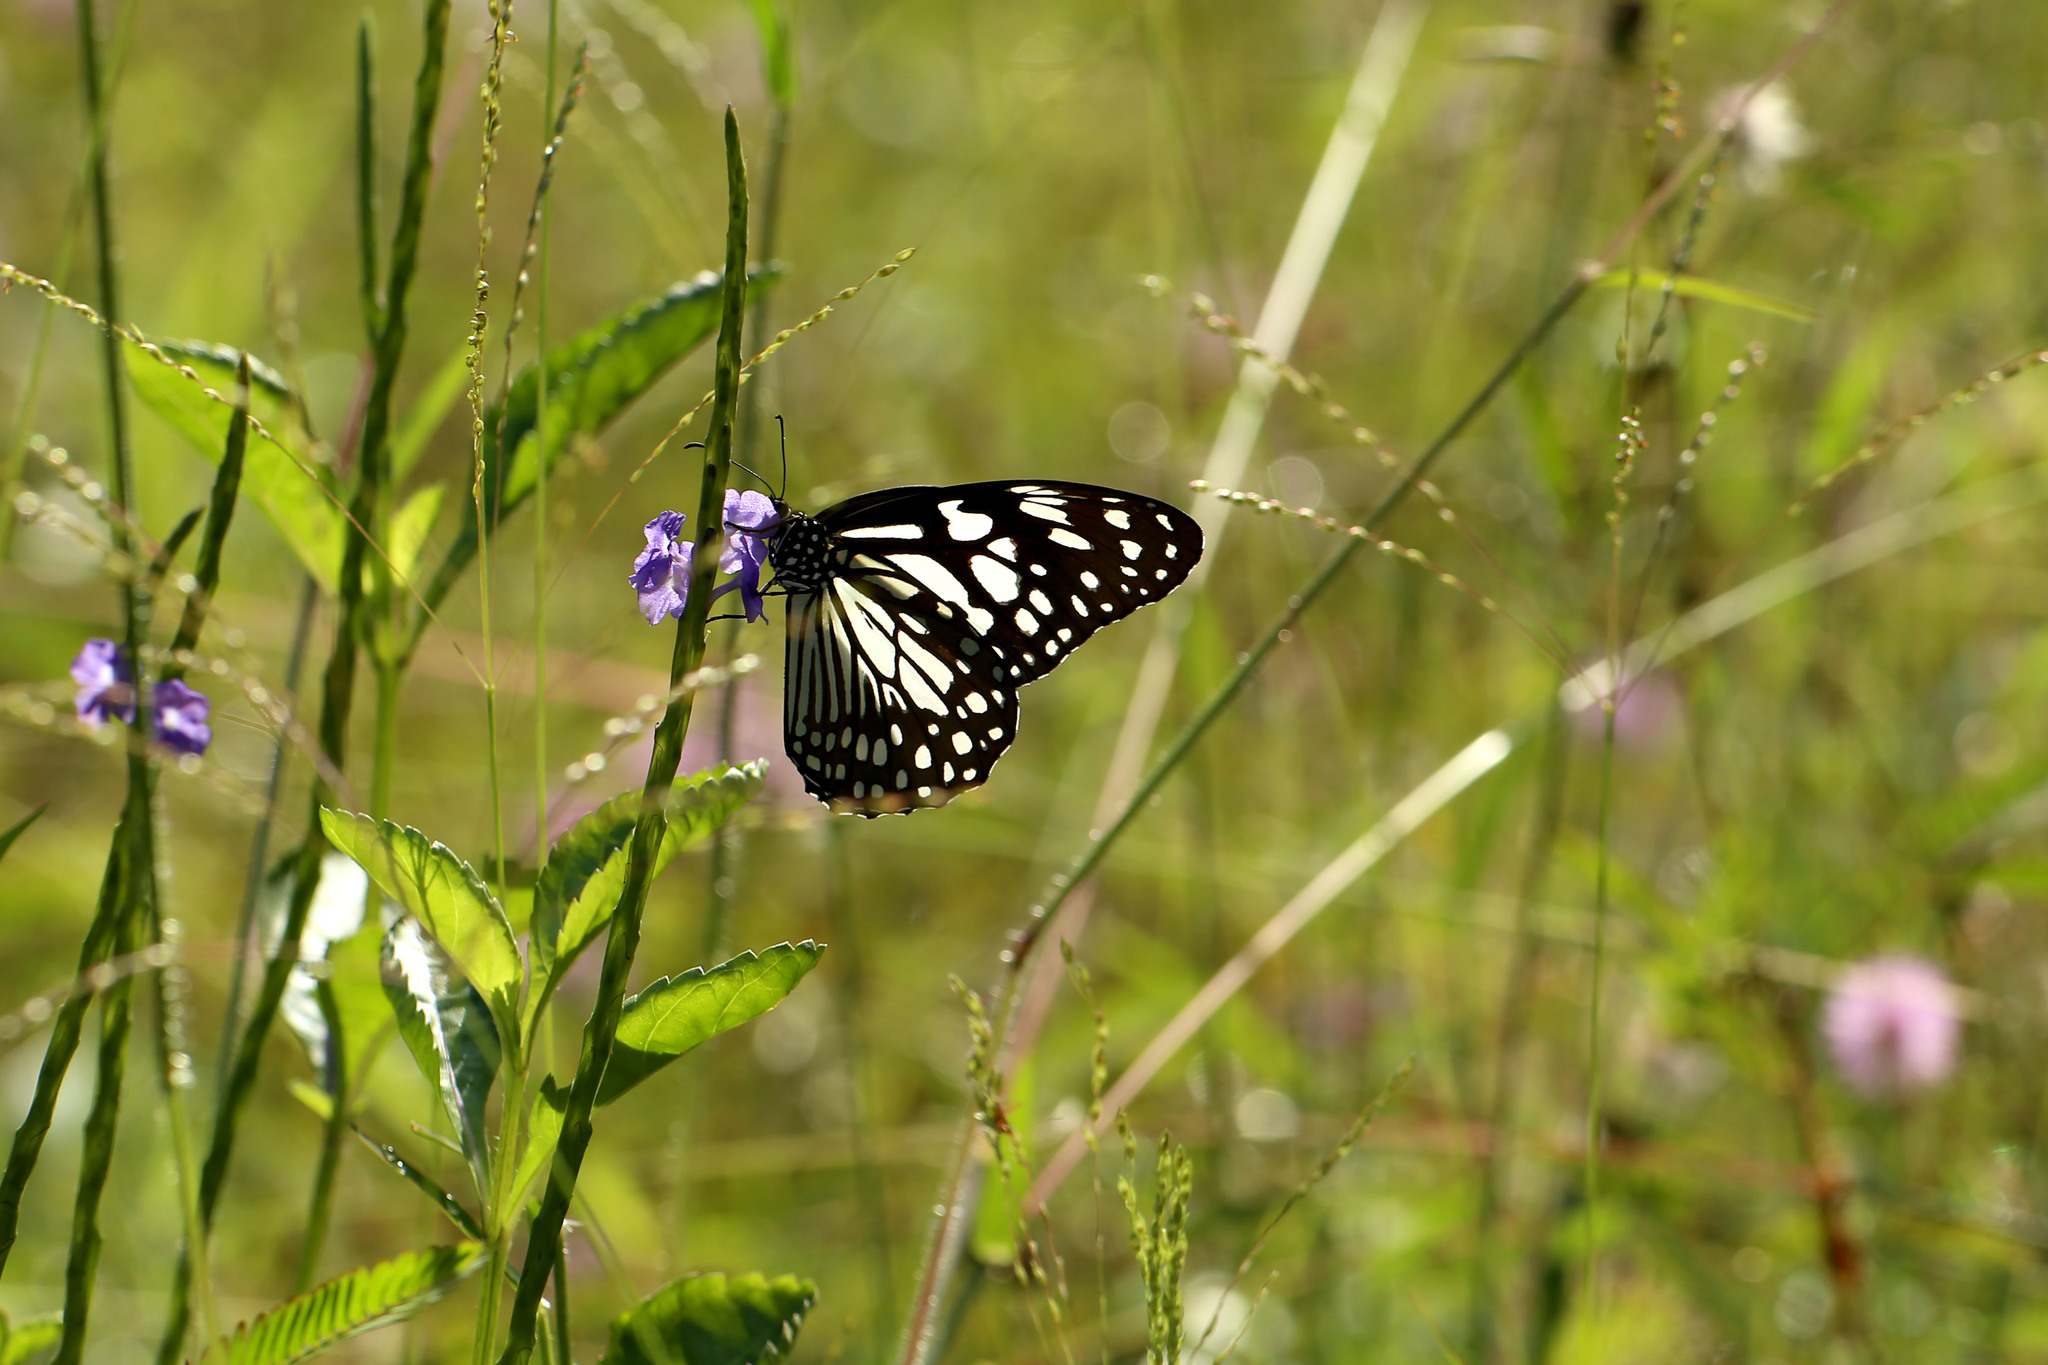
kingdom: Animalia
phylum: Arthropoda
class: Insecta
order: Lepidoptera
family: Nymphalidae
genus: Tirumala
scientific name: Tirumala limniace
